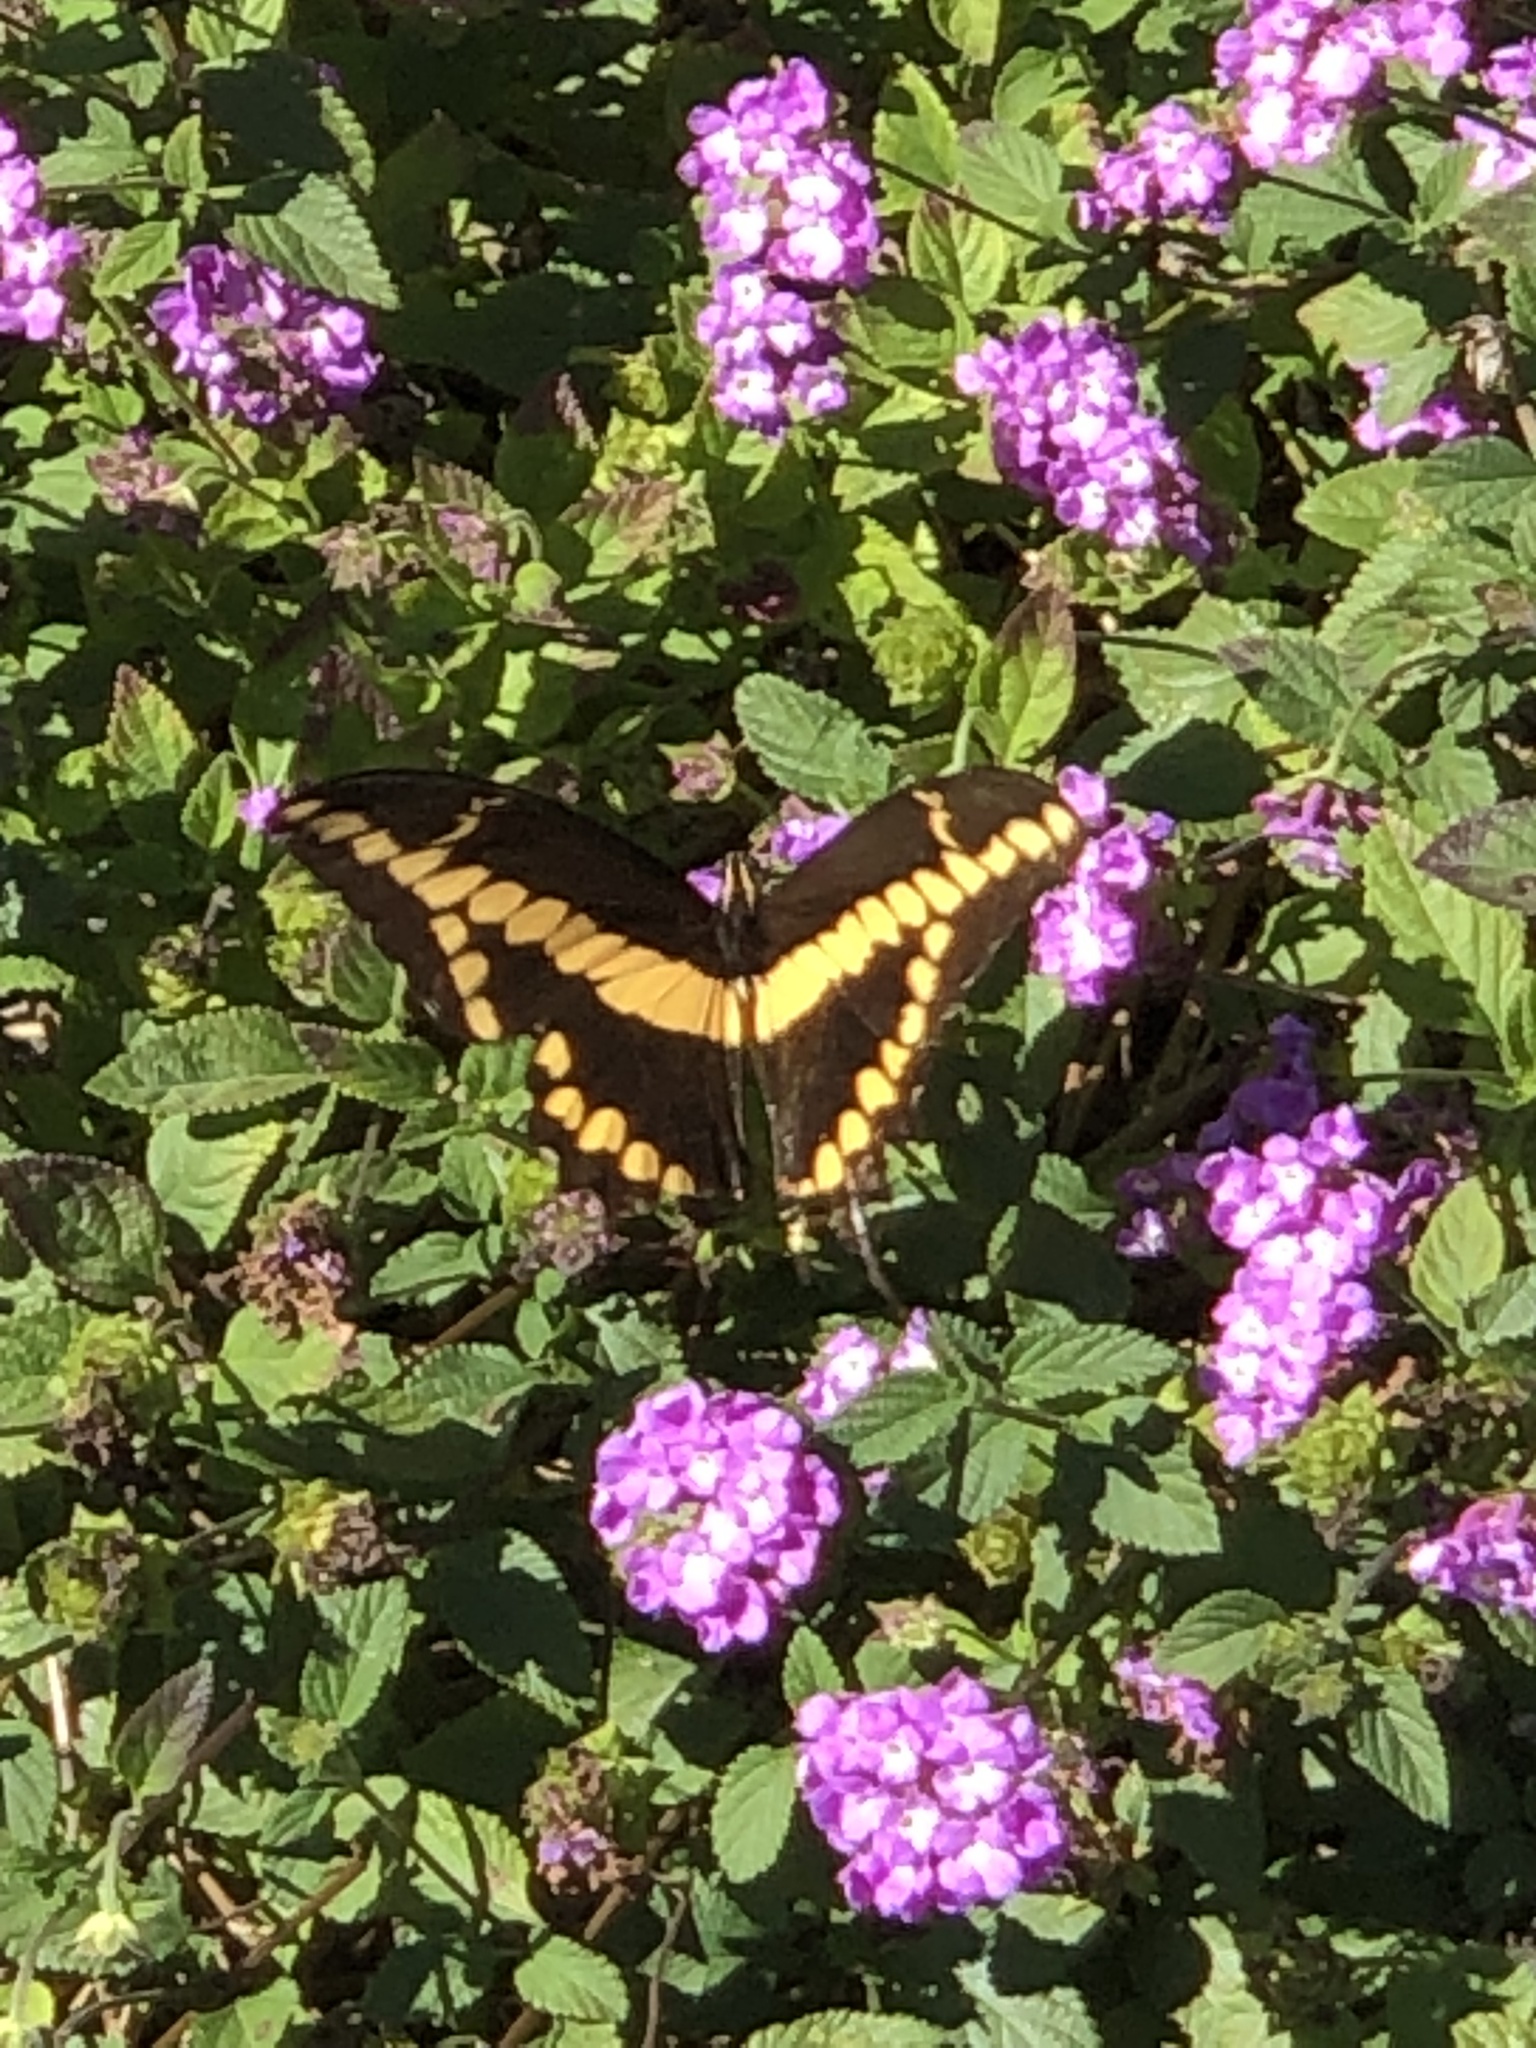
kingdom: Animalia
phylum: Arthropoda
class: Insecta
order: Lepidoptera
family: Papilionidae
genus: Papilio
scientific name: Papilio rumiko
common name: Western giant swallowtail
